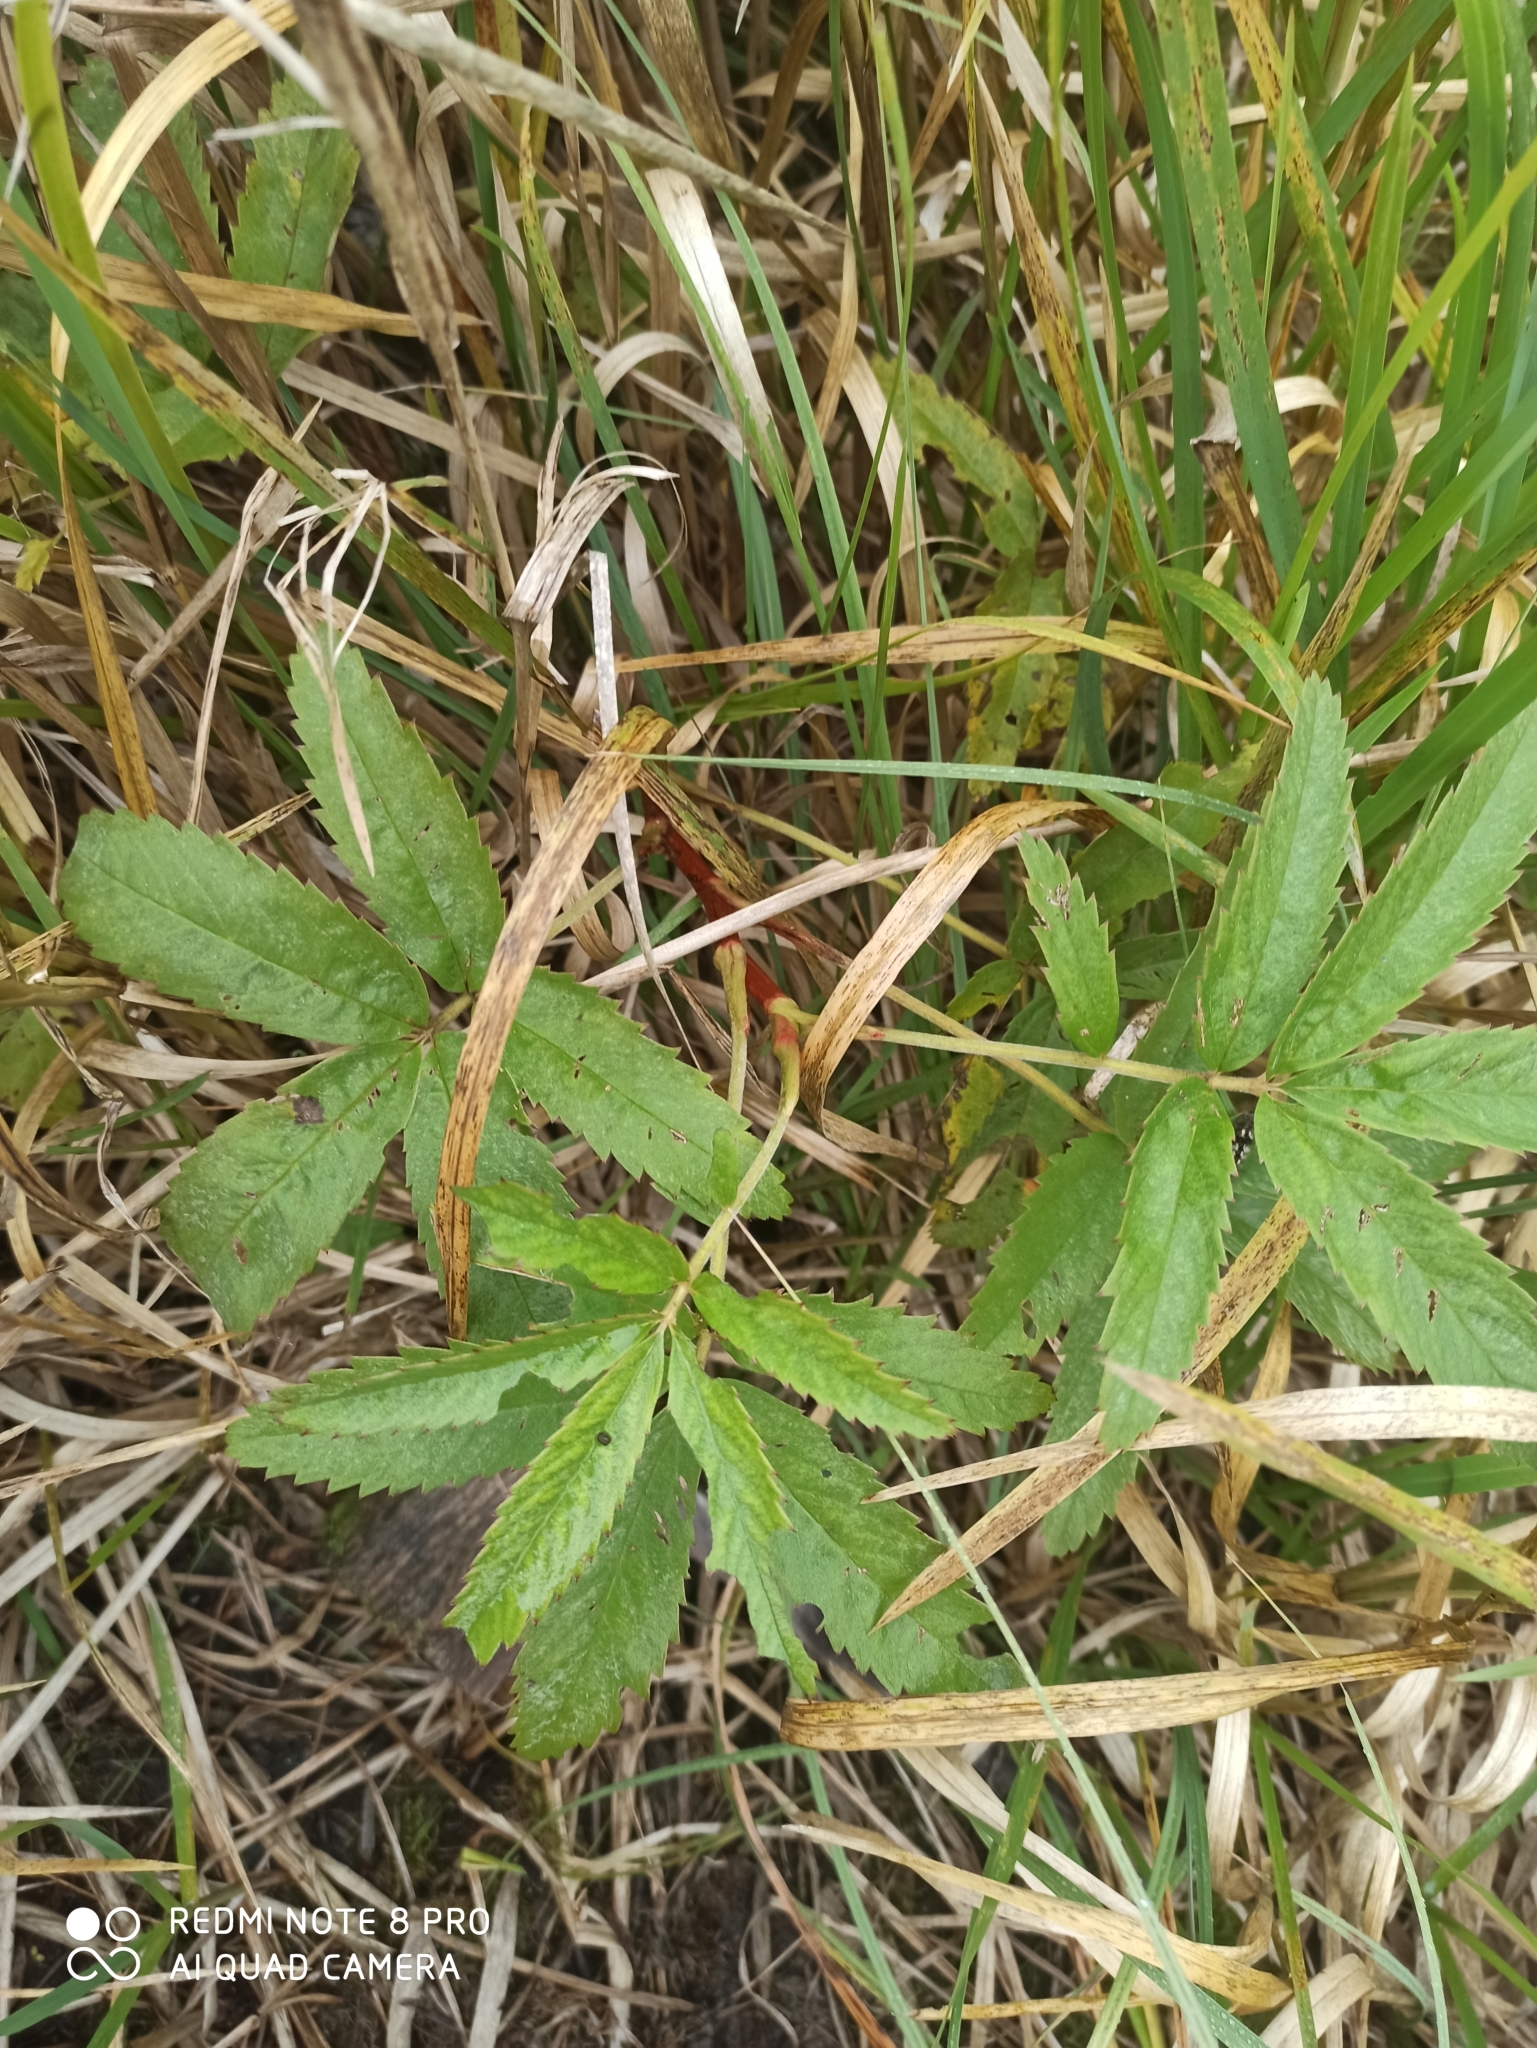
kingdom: Plantae
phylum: Tracheophyta
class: Magnoliopsida
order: Rosales
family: Rosaceae
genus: Comarum
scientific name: Comarum palustre
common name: Marsh cinquefoil
